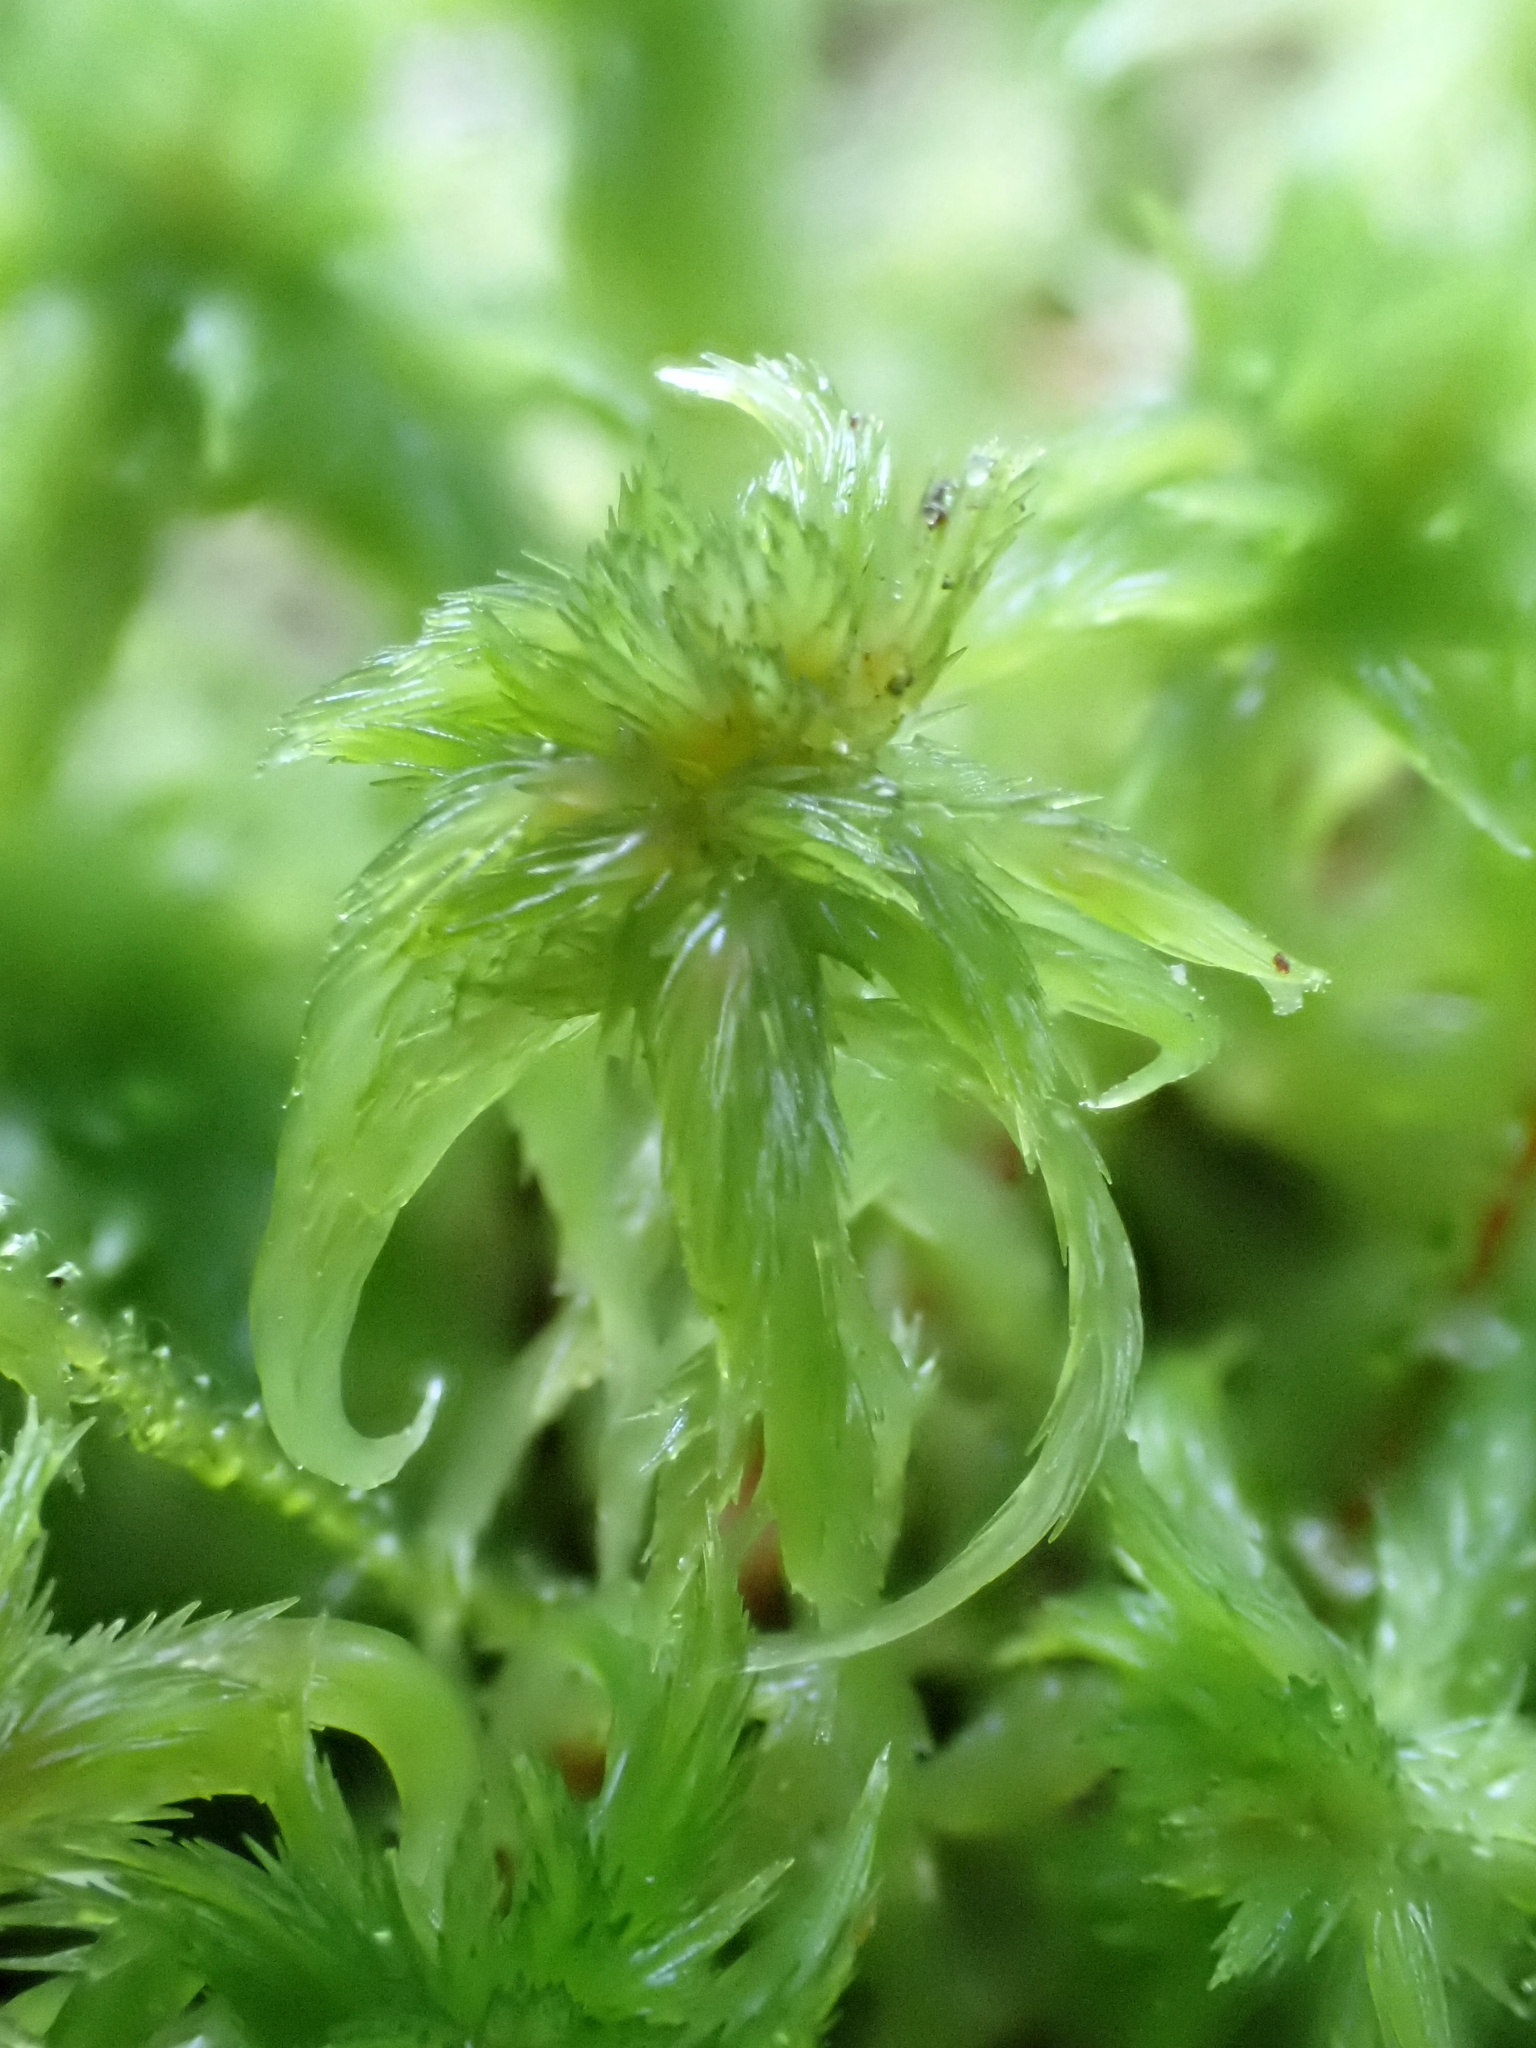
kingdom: Plantae
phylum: Bryophyta
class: Sphagnopsida
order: Sphagnales
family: Sphagnaceae
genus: Sphagnum
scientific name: Sphagnum cuspidatum
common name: Feathery peat moss
